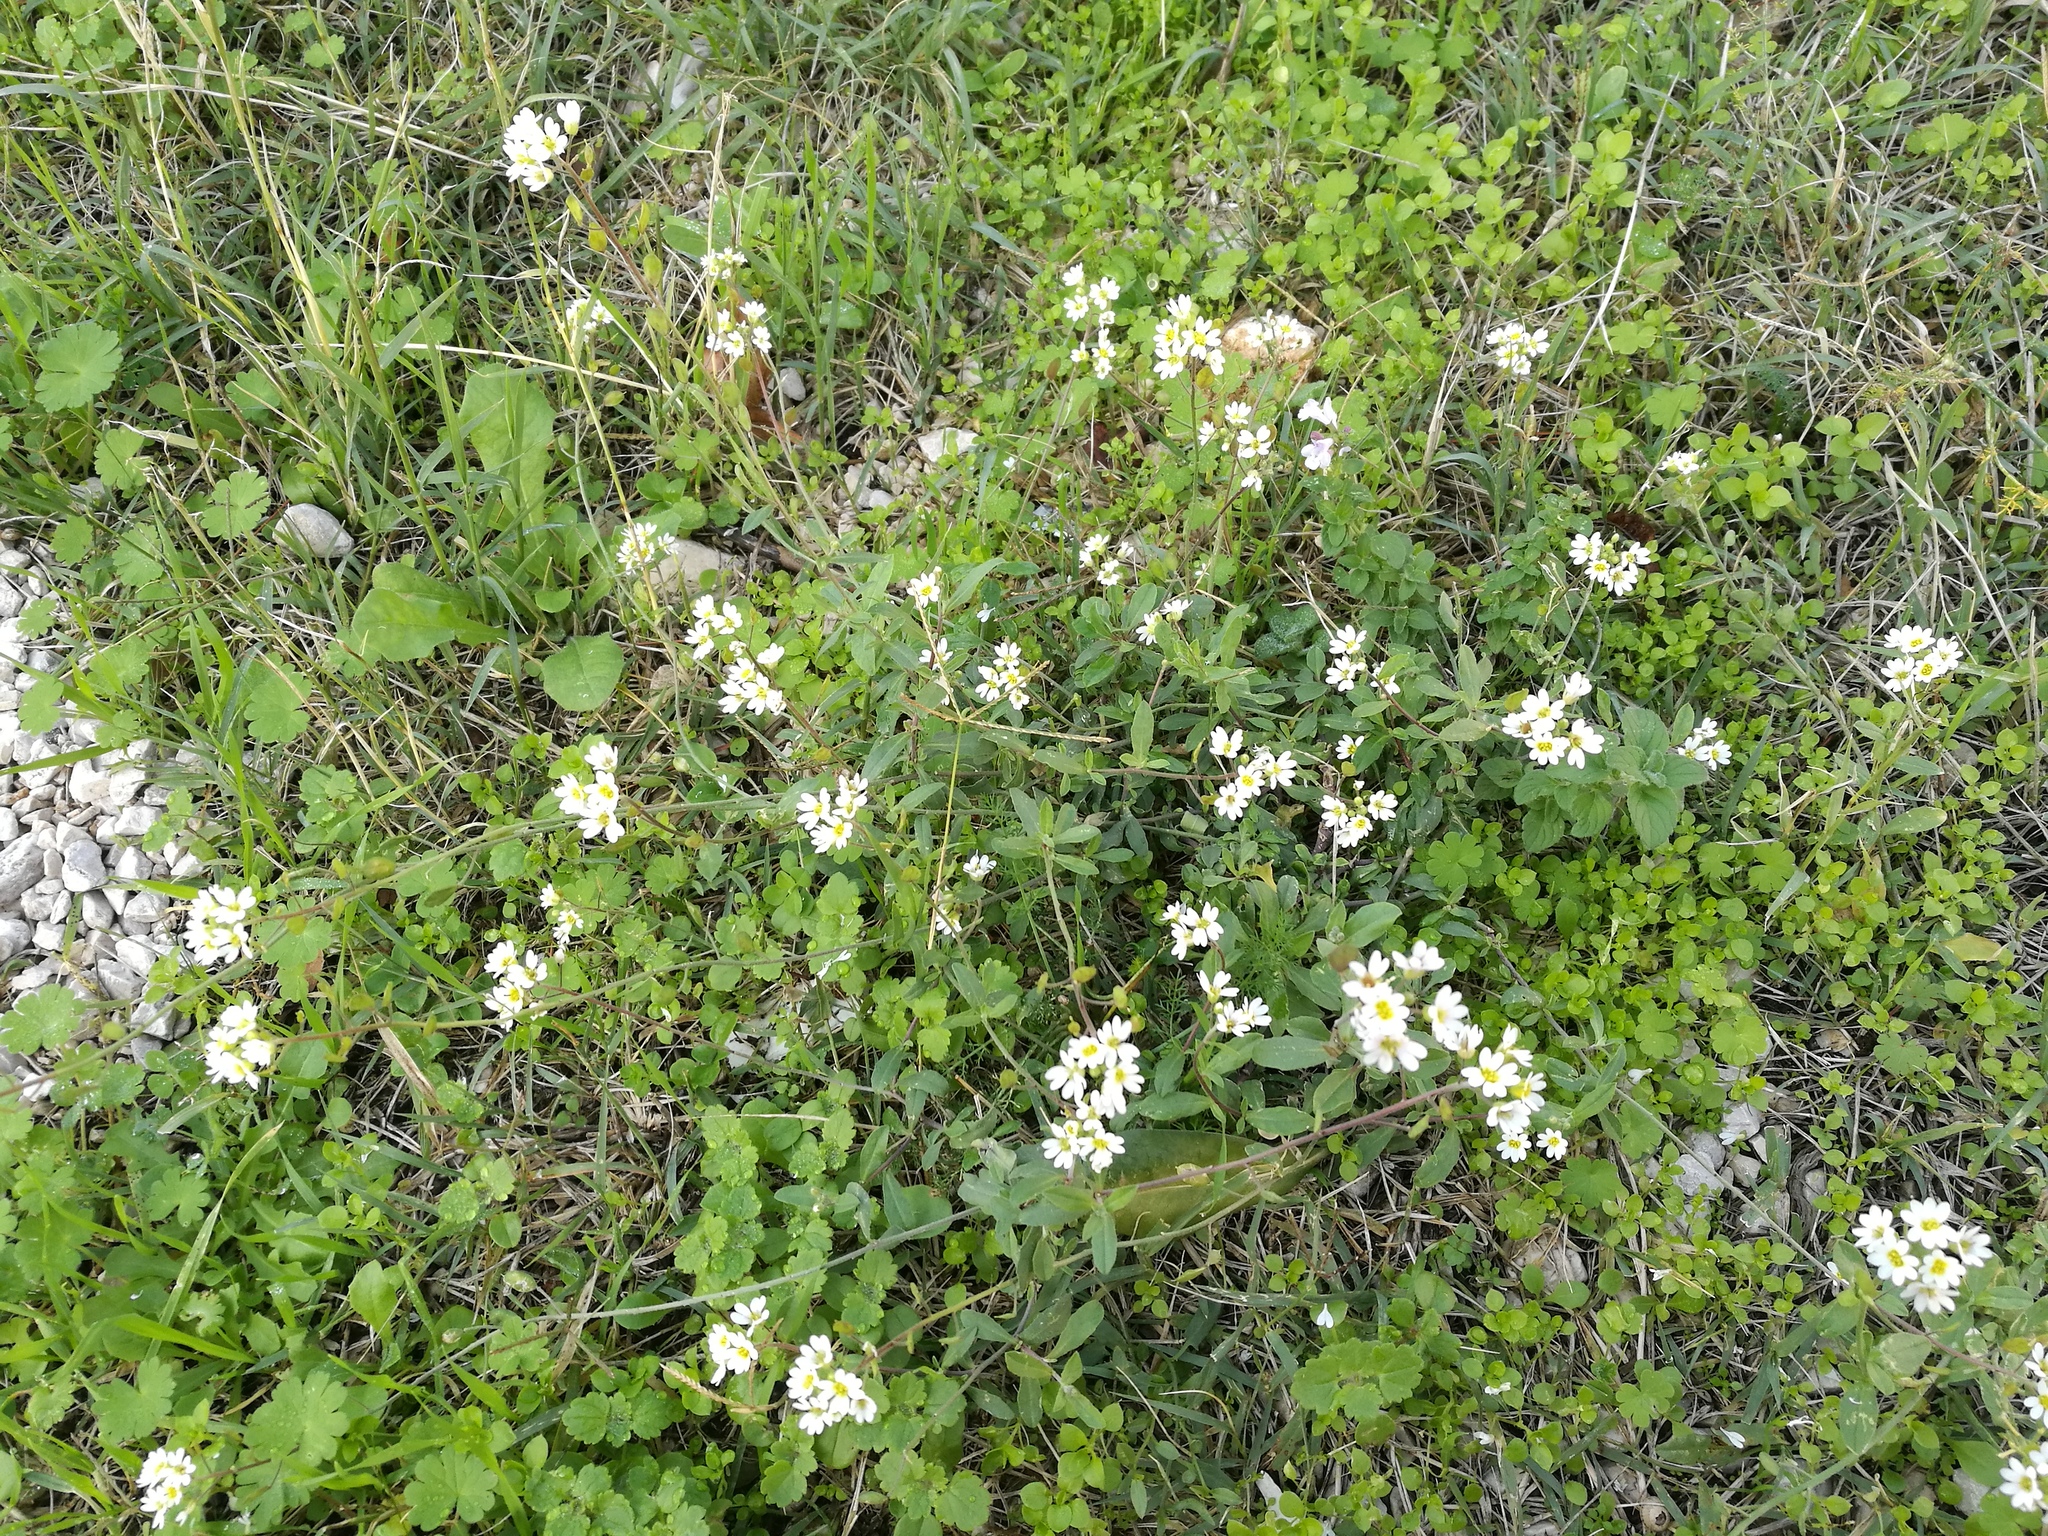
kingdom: Plantae
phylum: Tracheophyta
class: Magnoliopsida
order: Brassicales
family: Brassicaceae
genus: Berteroa
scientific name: Berteroa mutabilis
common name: Roadside false madwort
